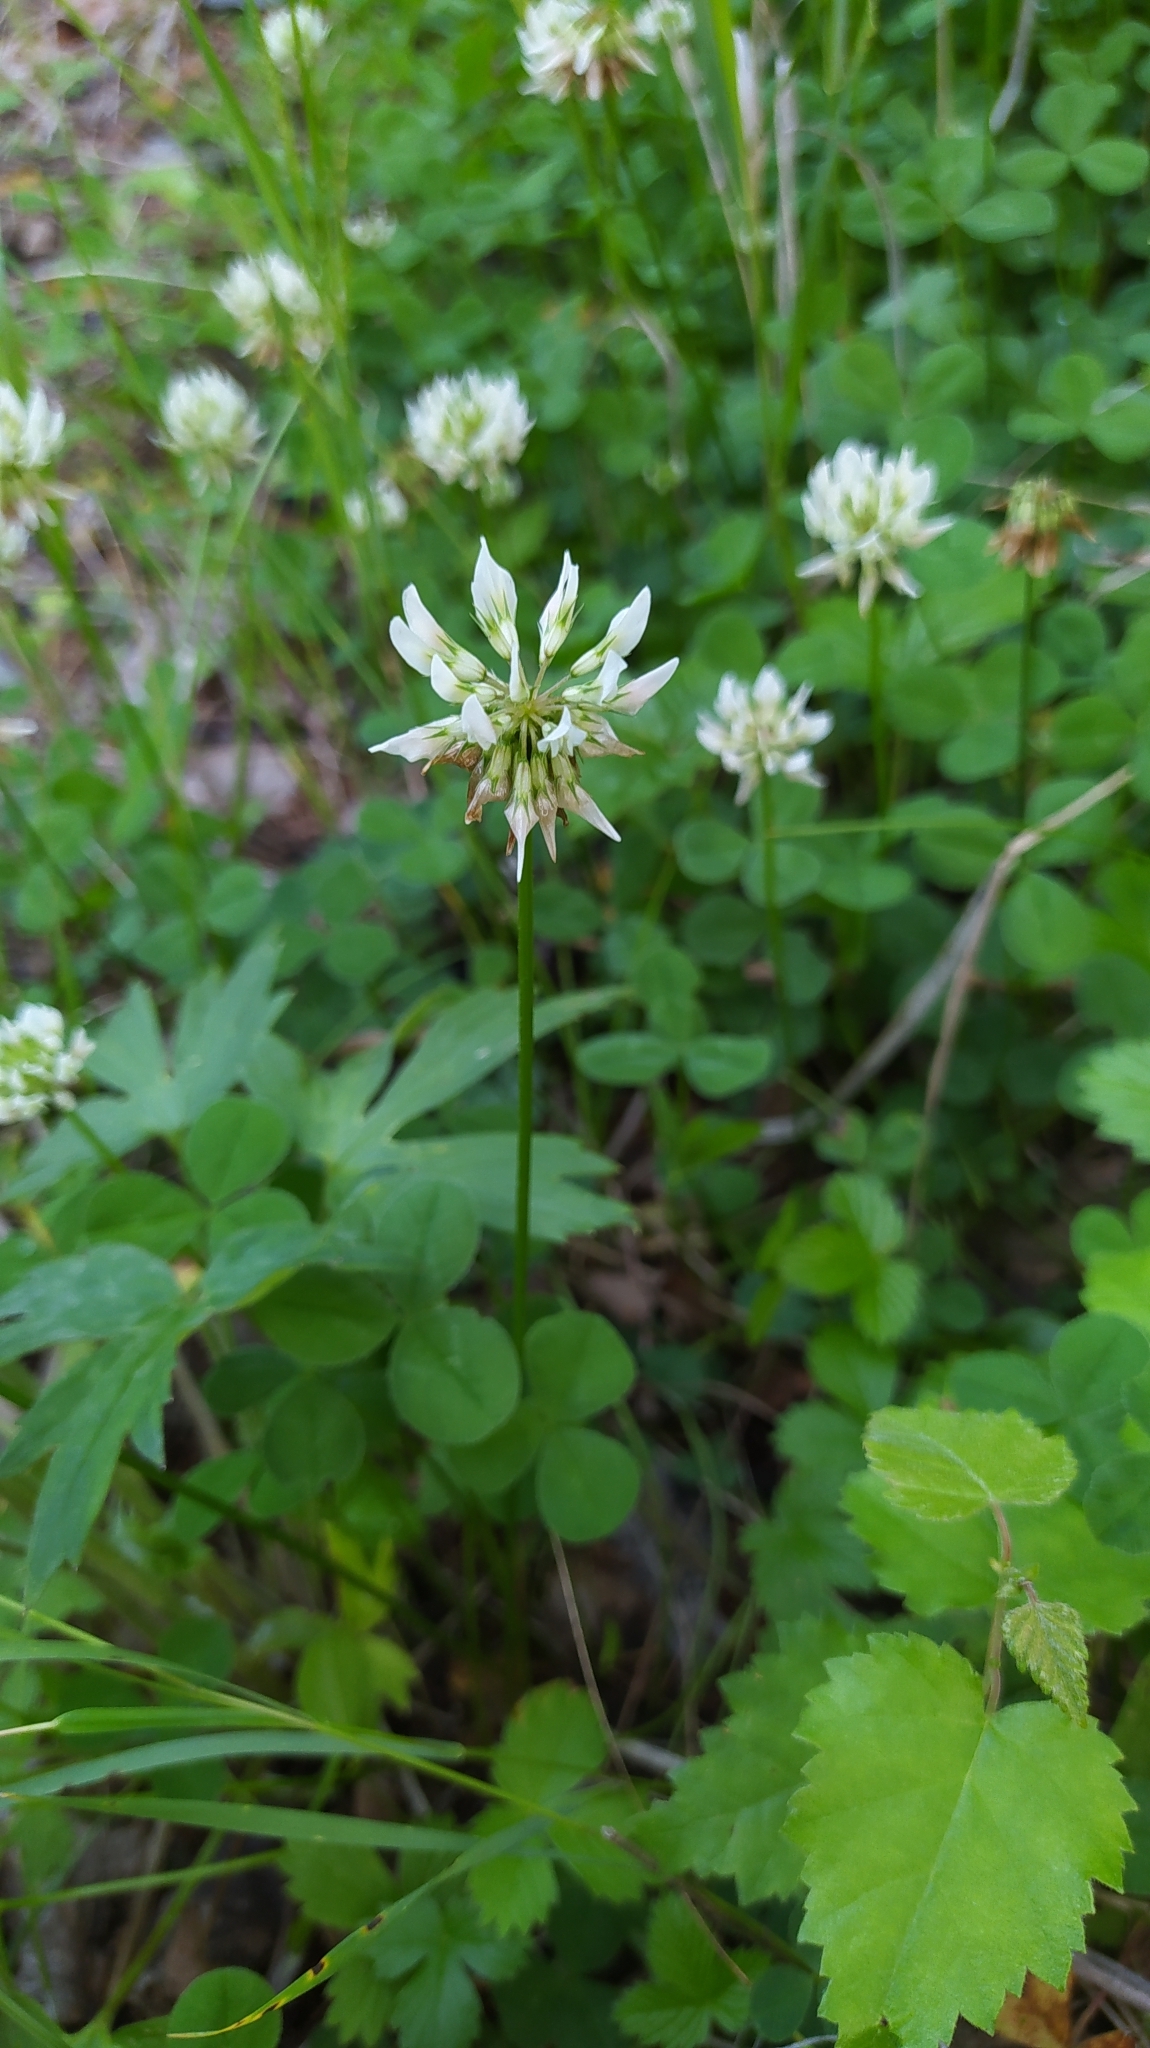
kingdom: Plantae
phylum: Tracheophyta
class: Magnoliopsida
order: Fabales
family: Fabaceae
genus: Trifolium
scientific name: Trifolium repens
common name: White clover
